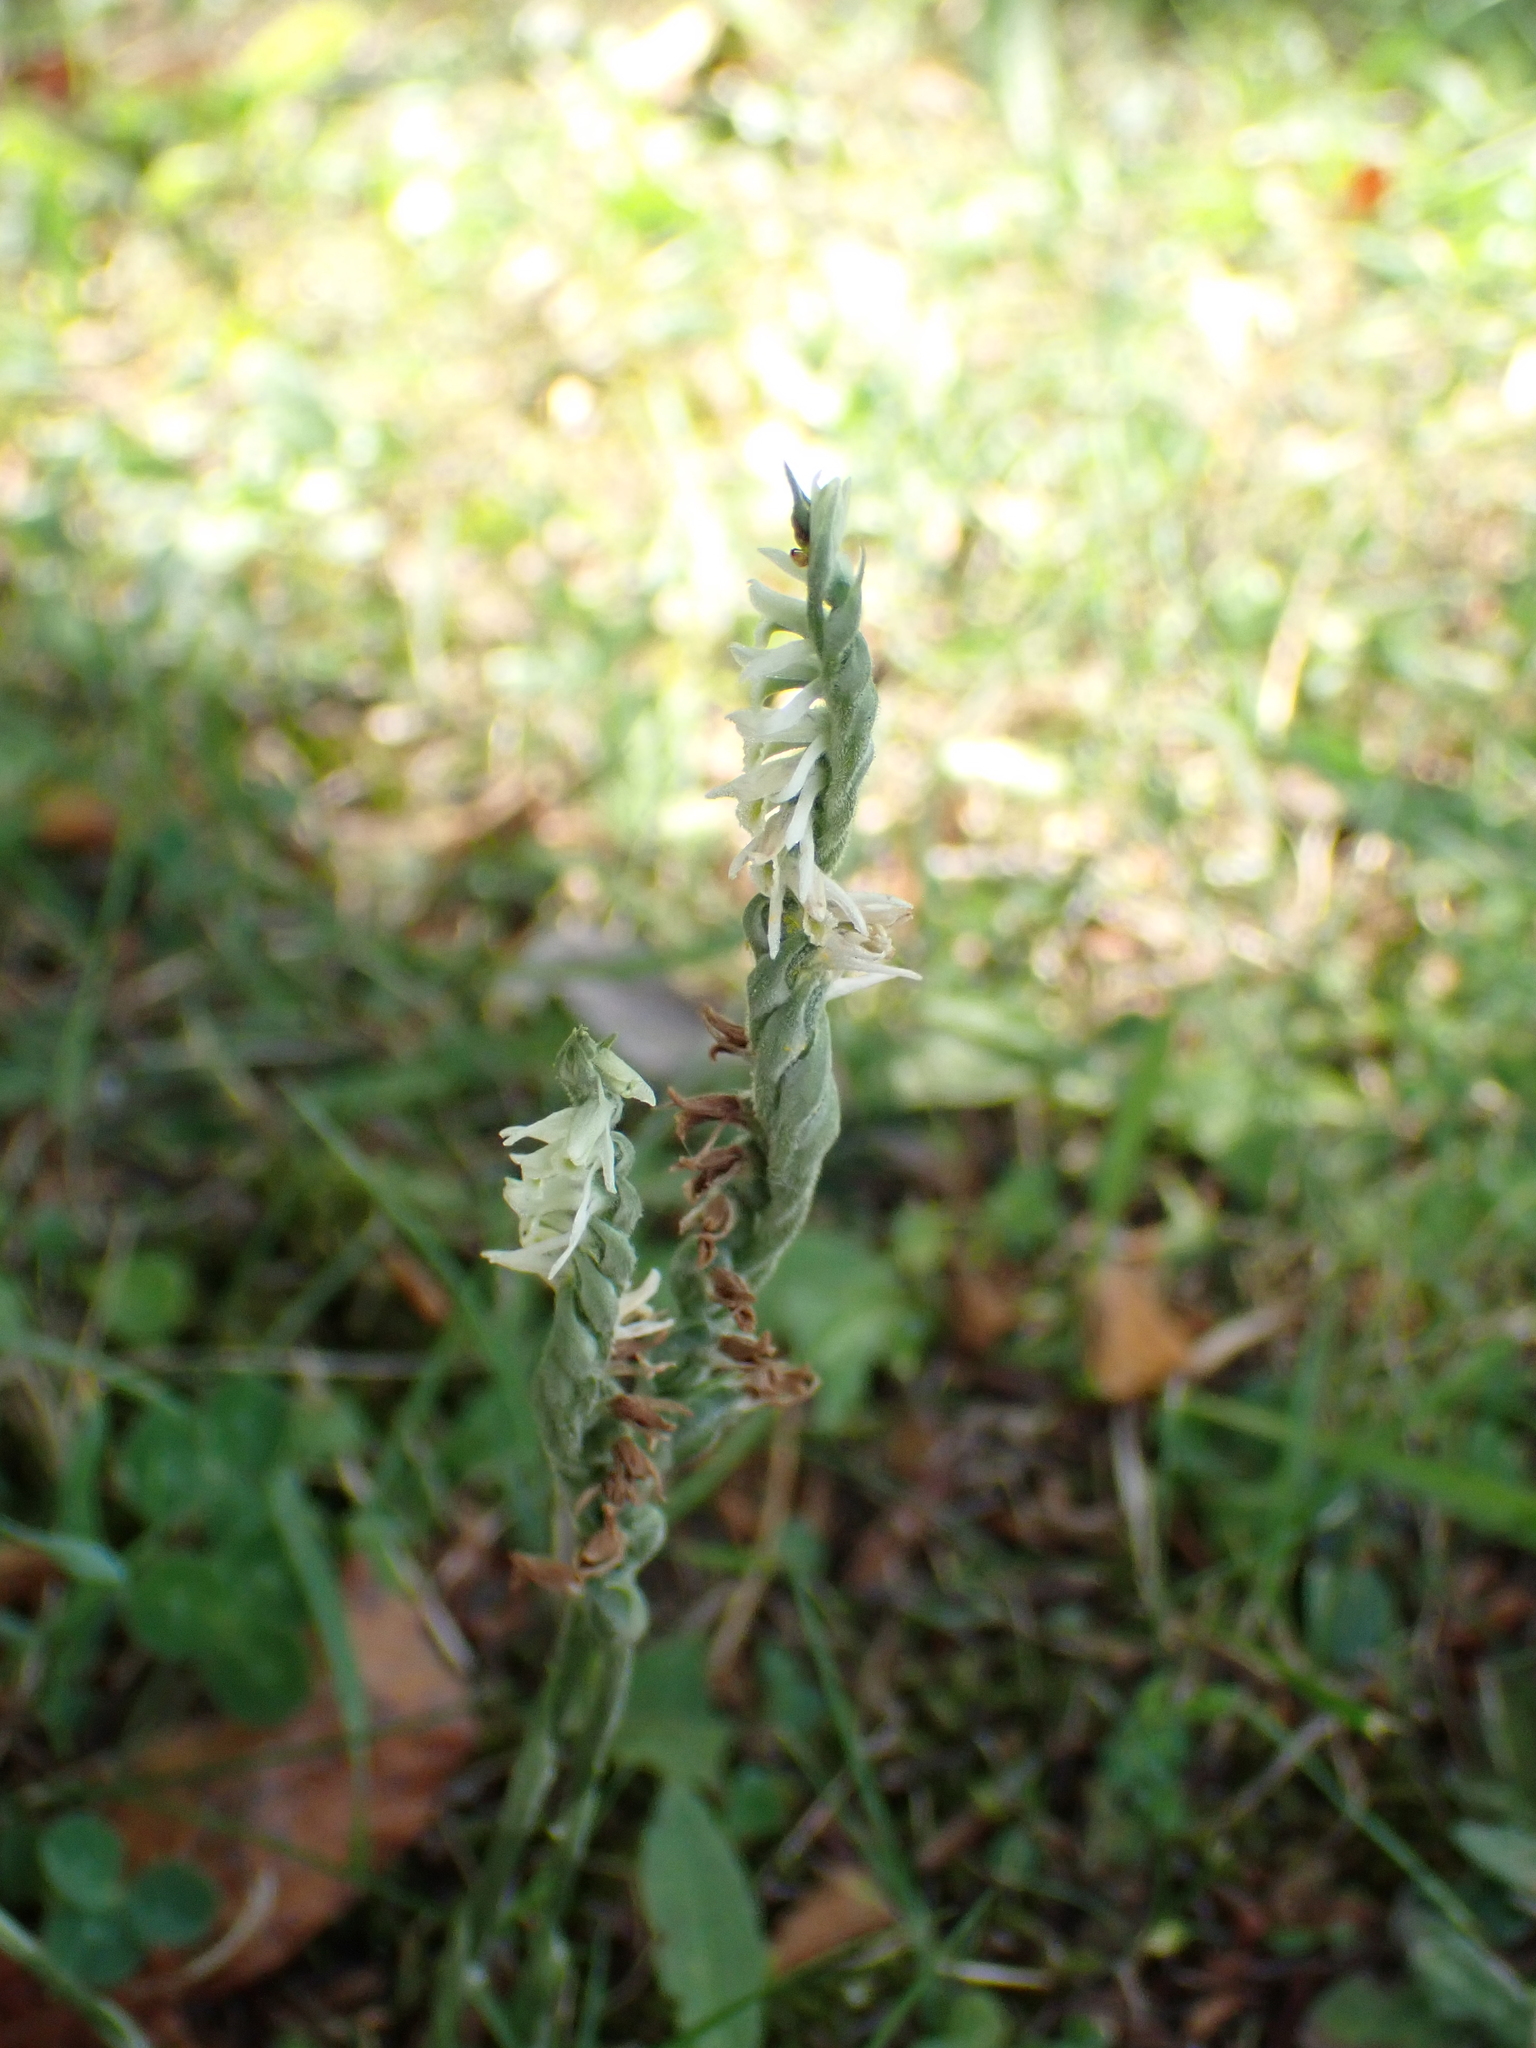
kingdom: Plantae
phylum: Tracheophyta
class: Liliopsida
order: Asparagales
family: Orchidaceae
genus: Spiranthes
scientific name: Spiranthes spiralis
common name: Autumn lady's-tresses
